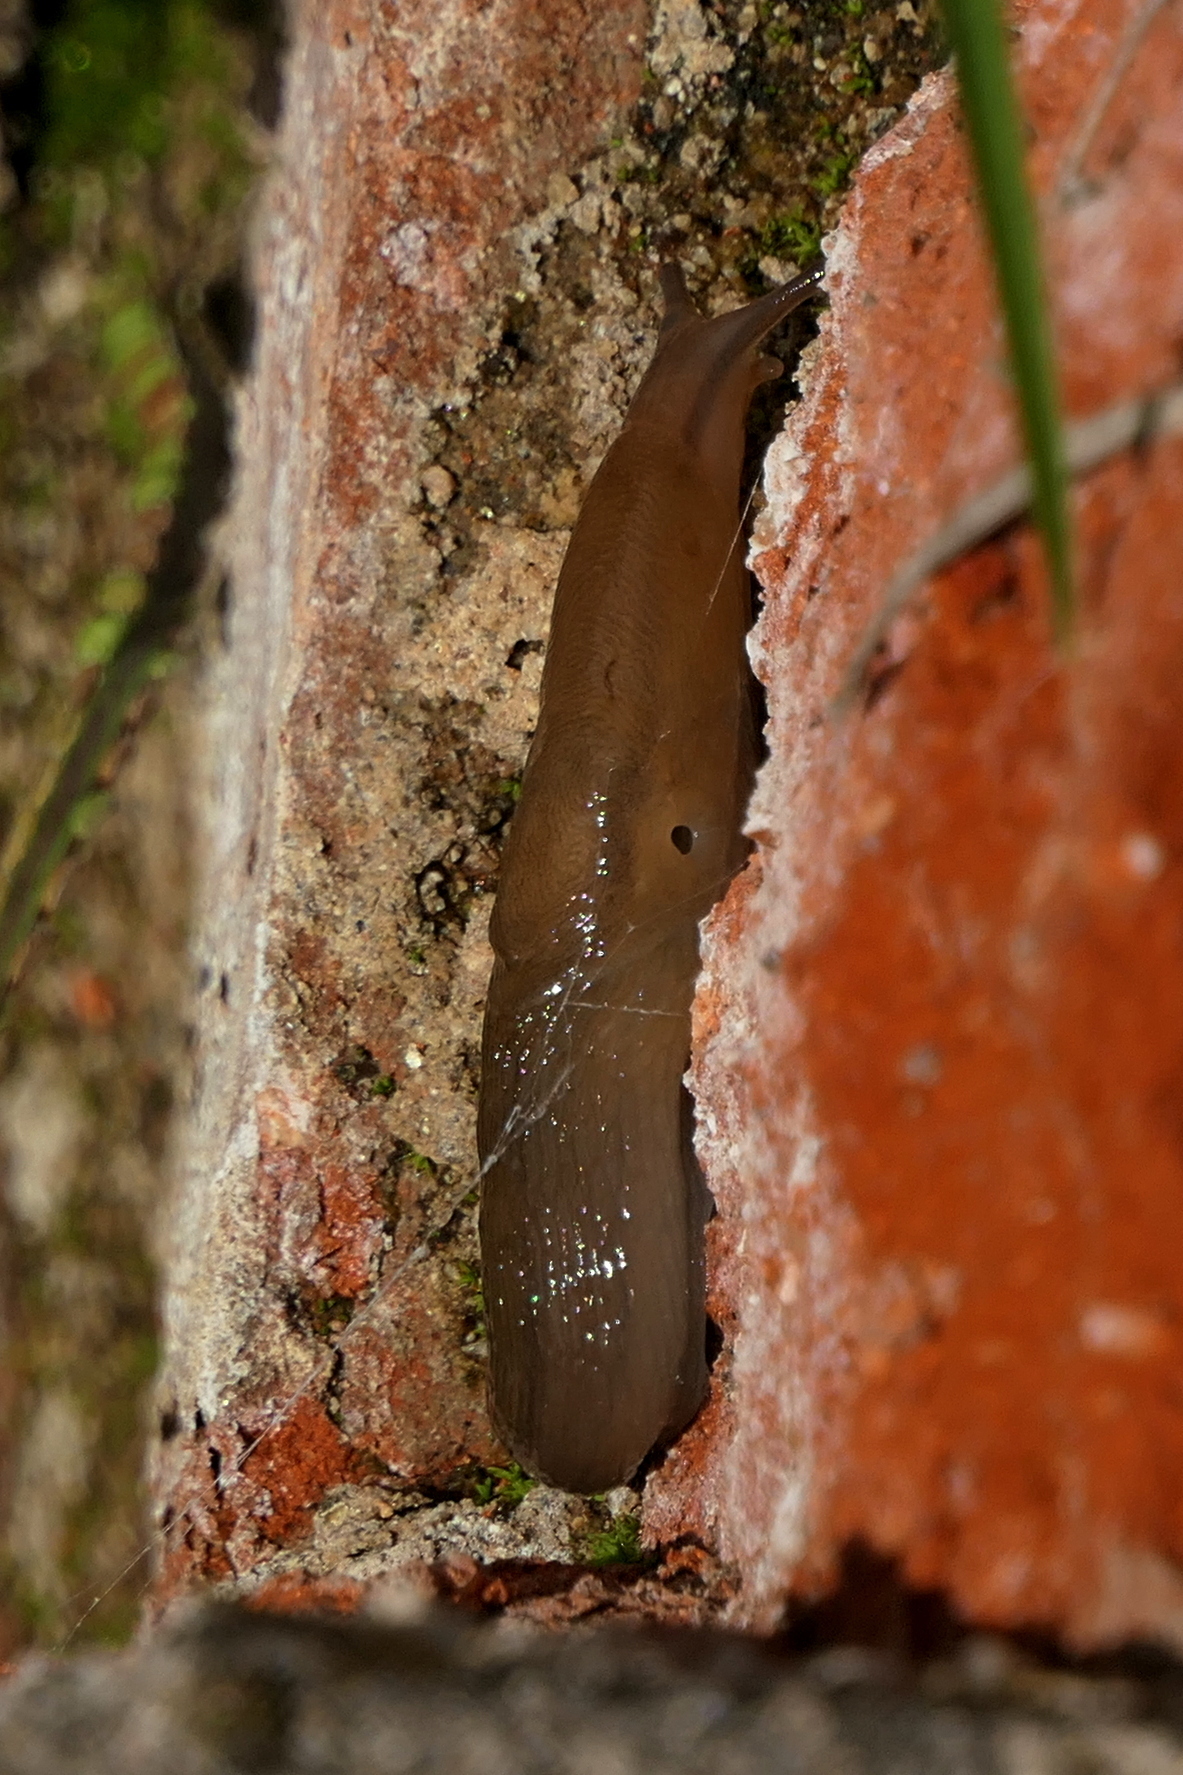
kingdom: Animalia
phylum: Mollusca
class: Gastropoda
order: Stylommatophora
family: Limacidae
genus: Ambigolimax
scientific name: Ambigolimax
